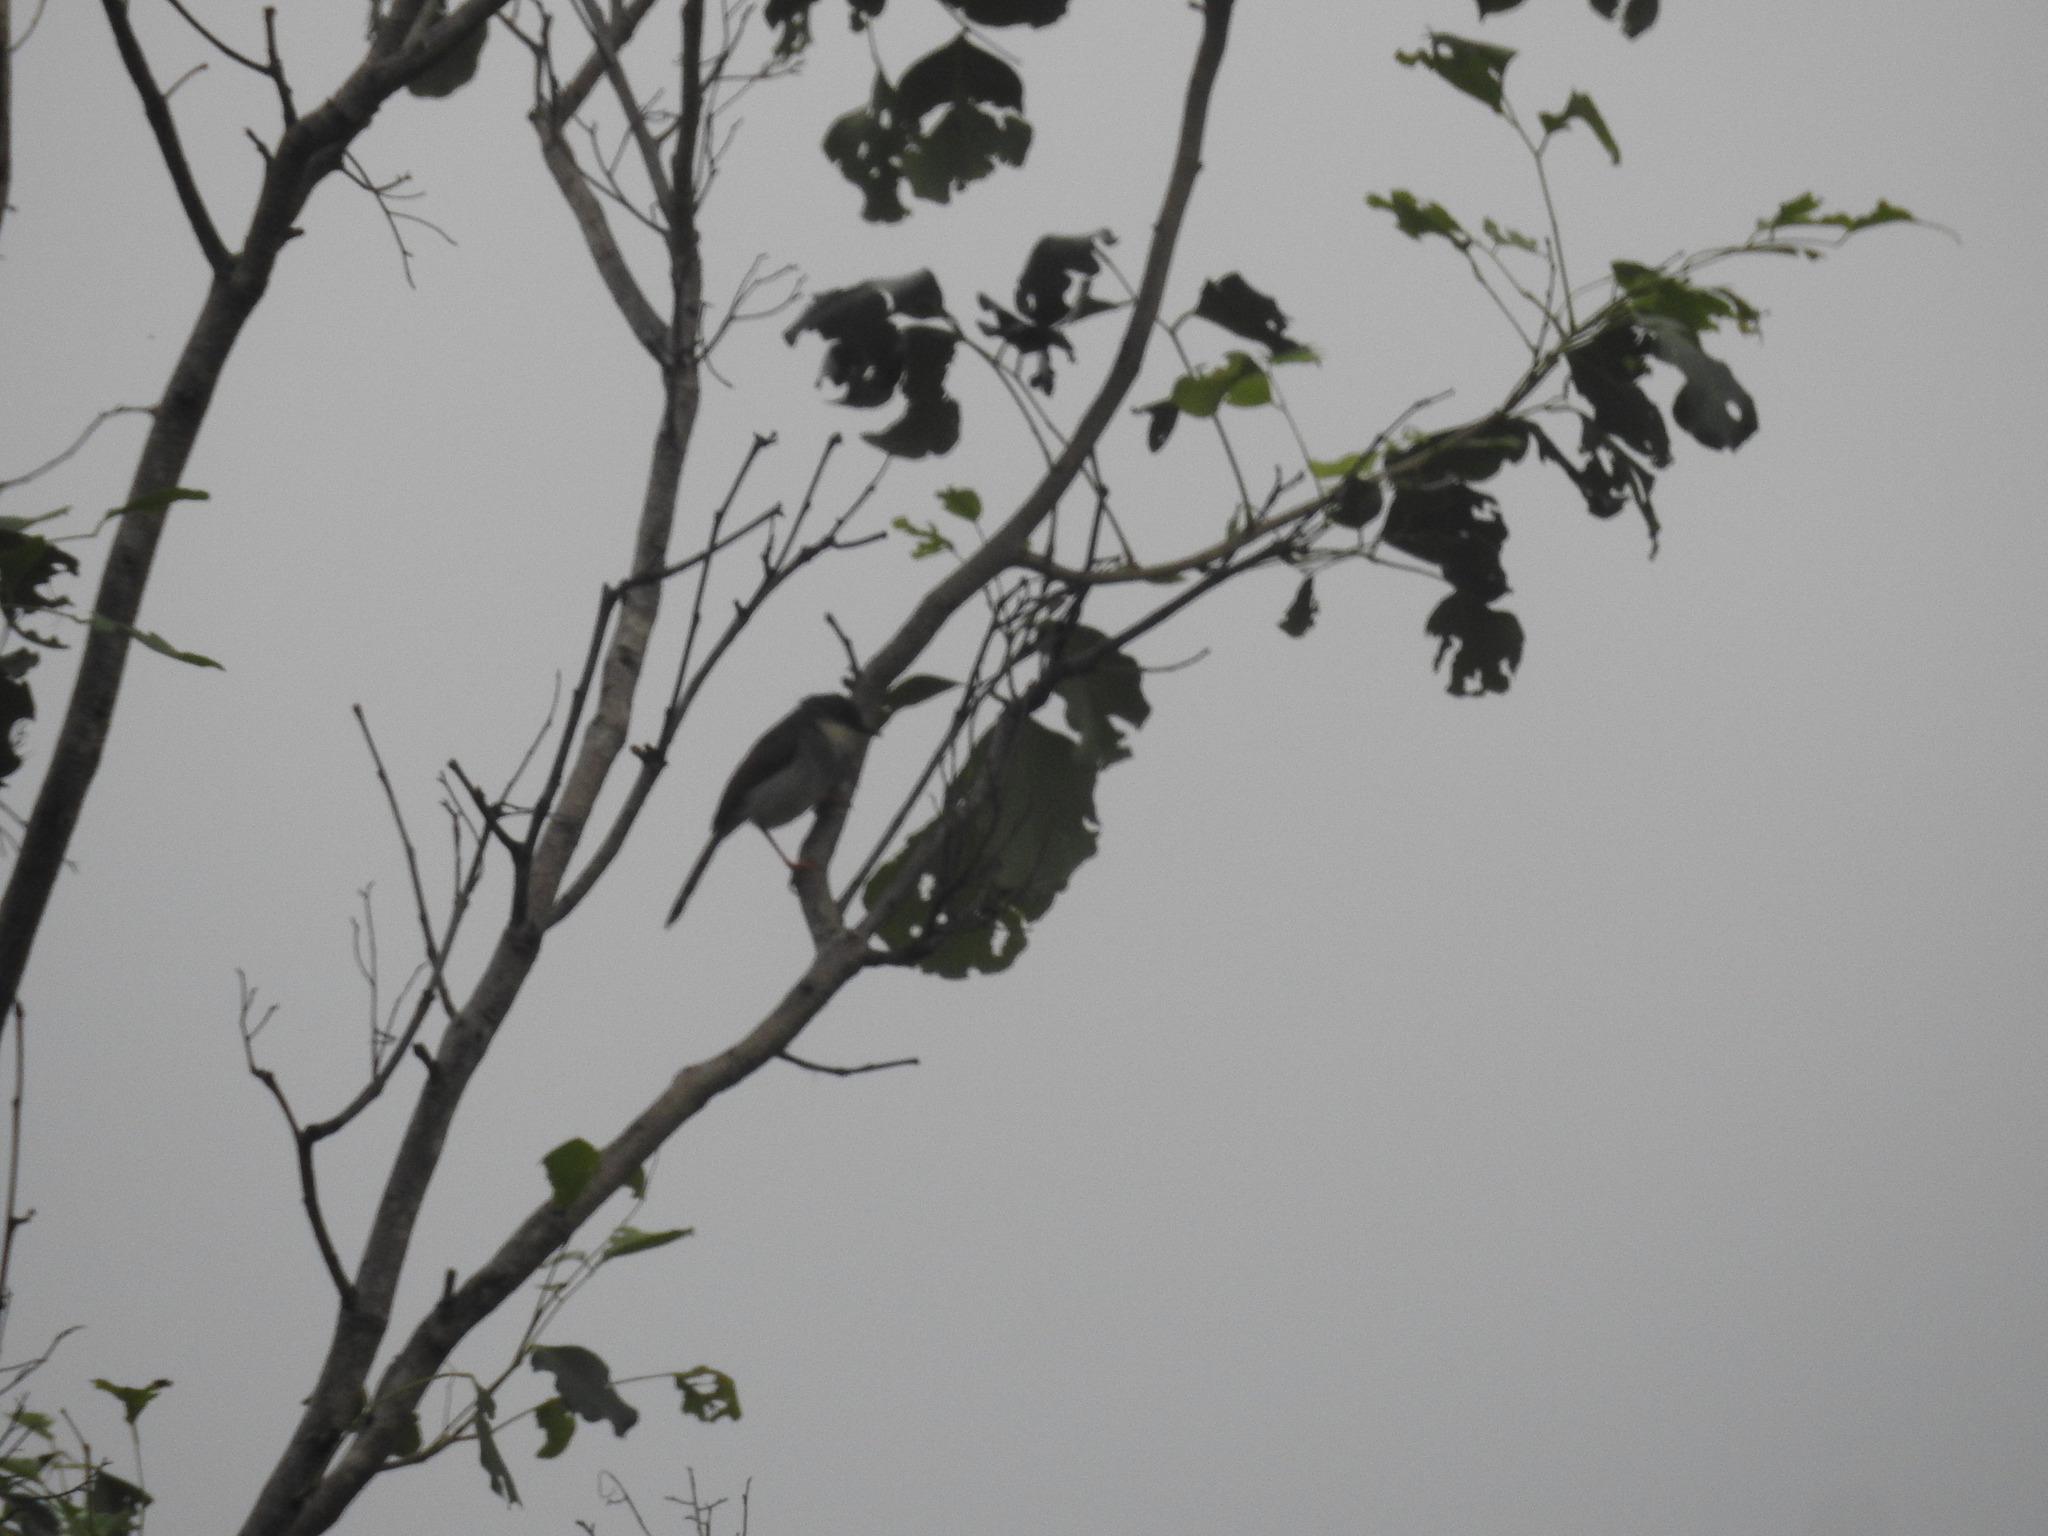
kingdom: Animalia
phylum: Chordata
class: Aves
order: Passeriformes
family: Cisticolidae
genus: Prinia
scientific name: Prinia hodgsonii
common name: Grey-breasted prinia
